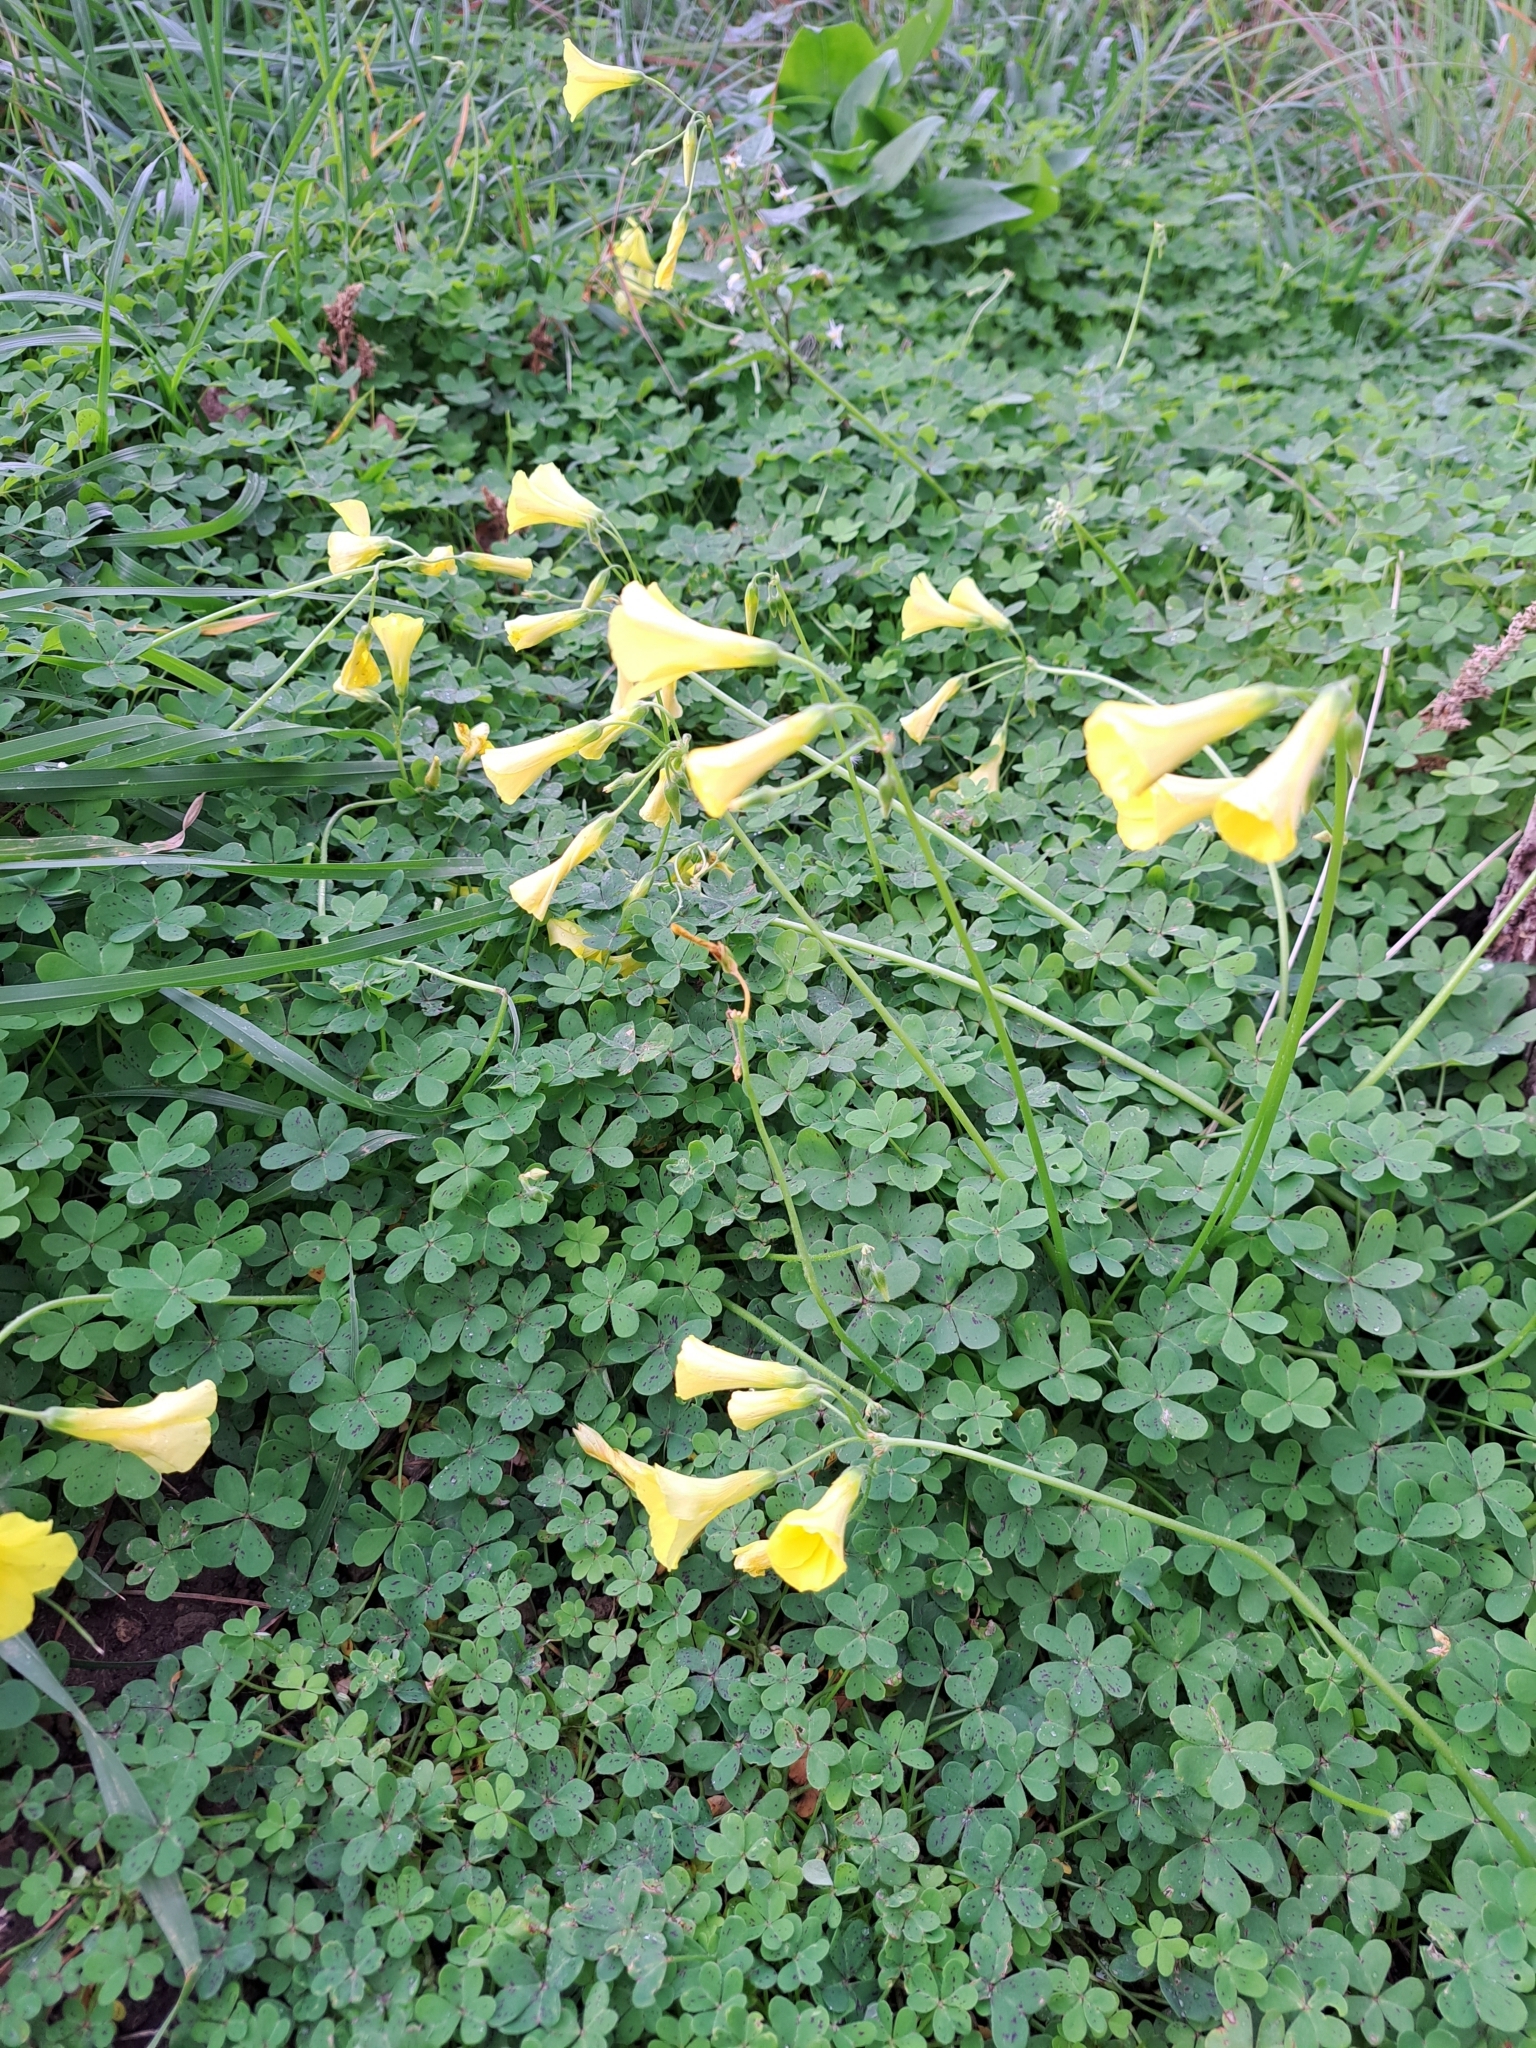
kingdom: Plantae
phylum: Tracheophyta
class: Magnoliopsida
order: Oxalidales
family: Oxalidaceae
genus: Oxalis
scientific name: Oxalis pes-caprae
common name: Bermuda-buttercup
